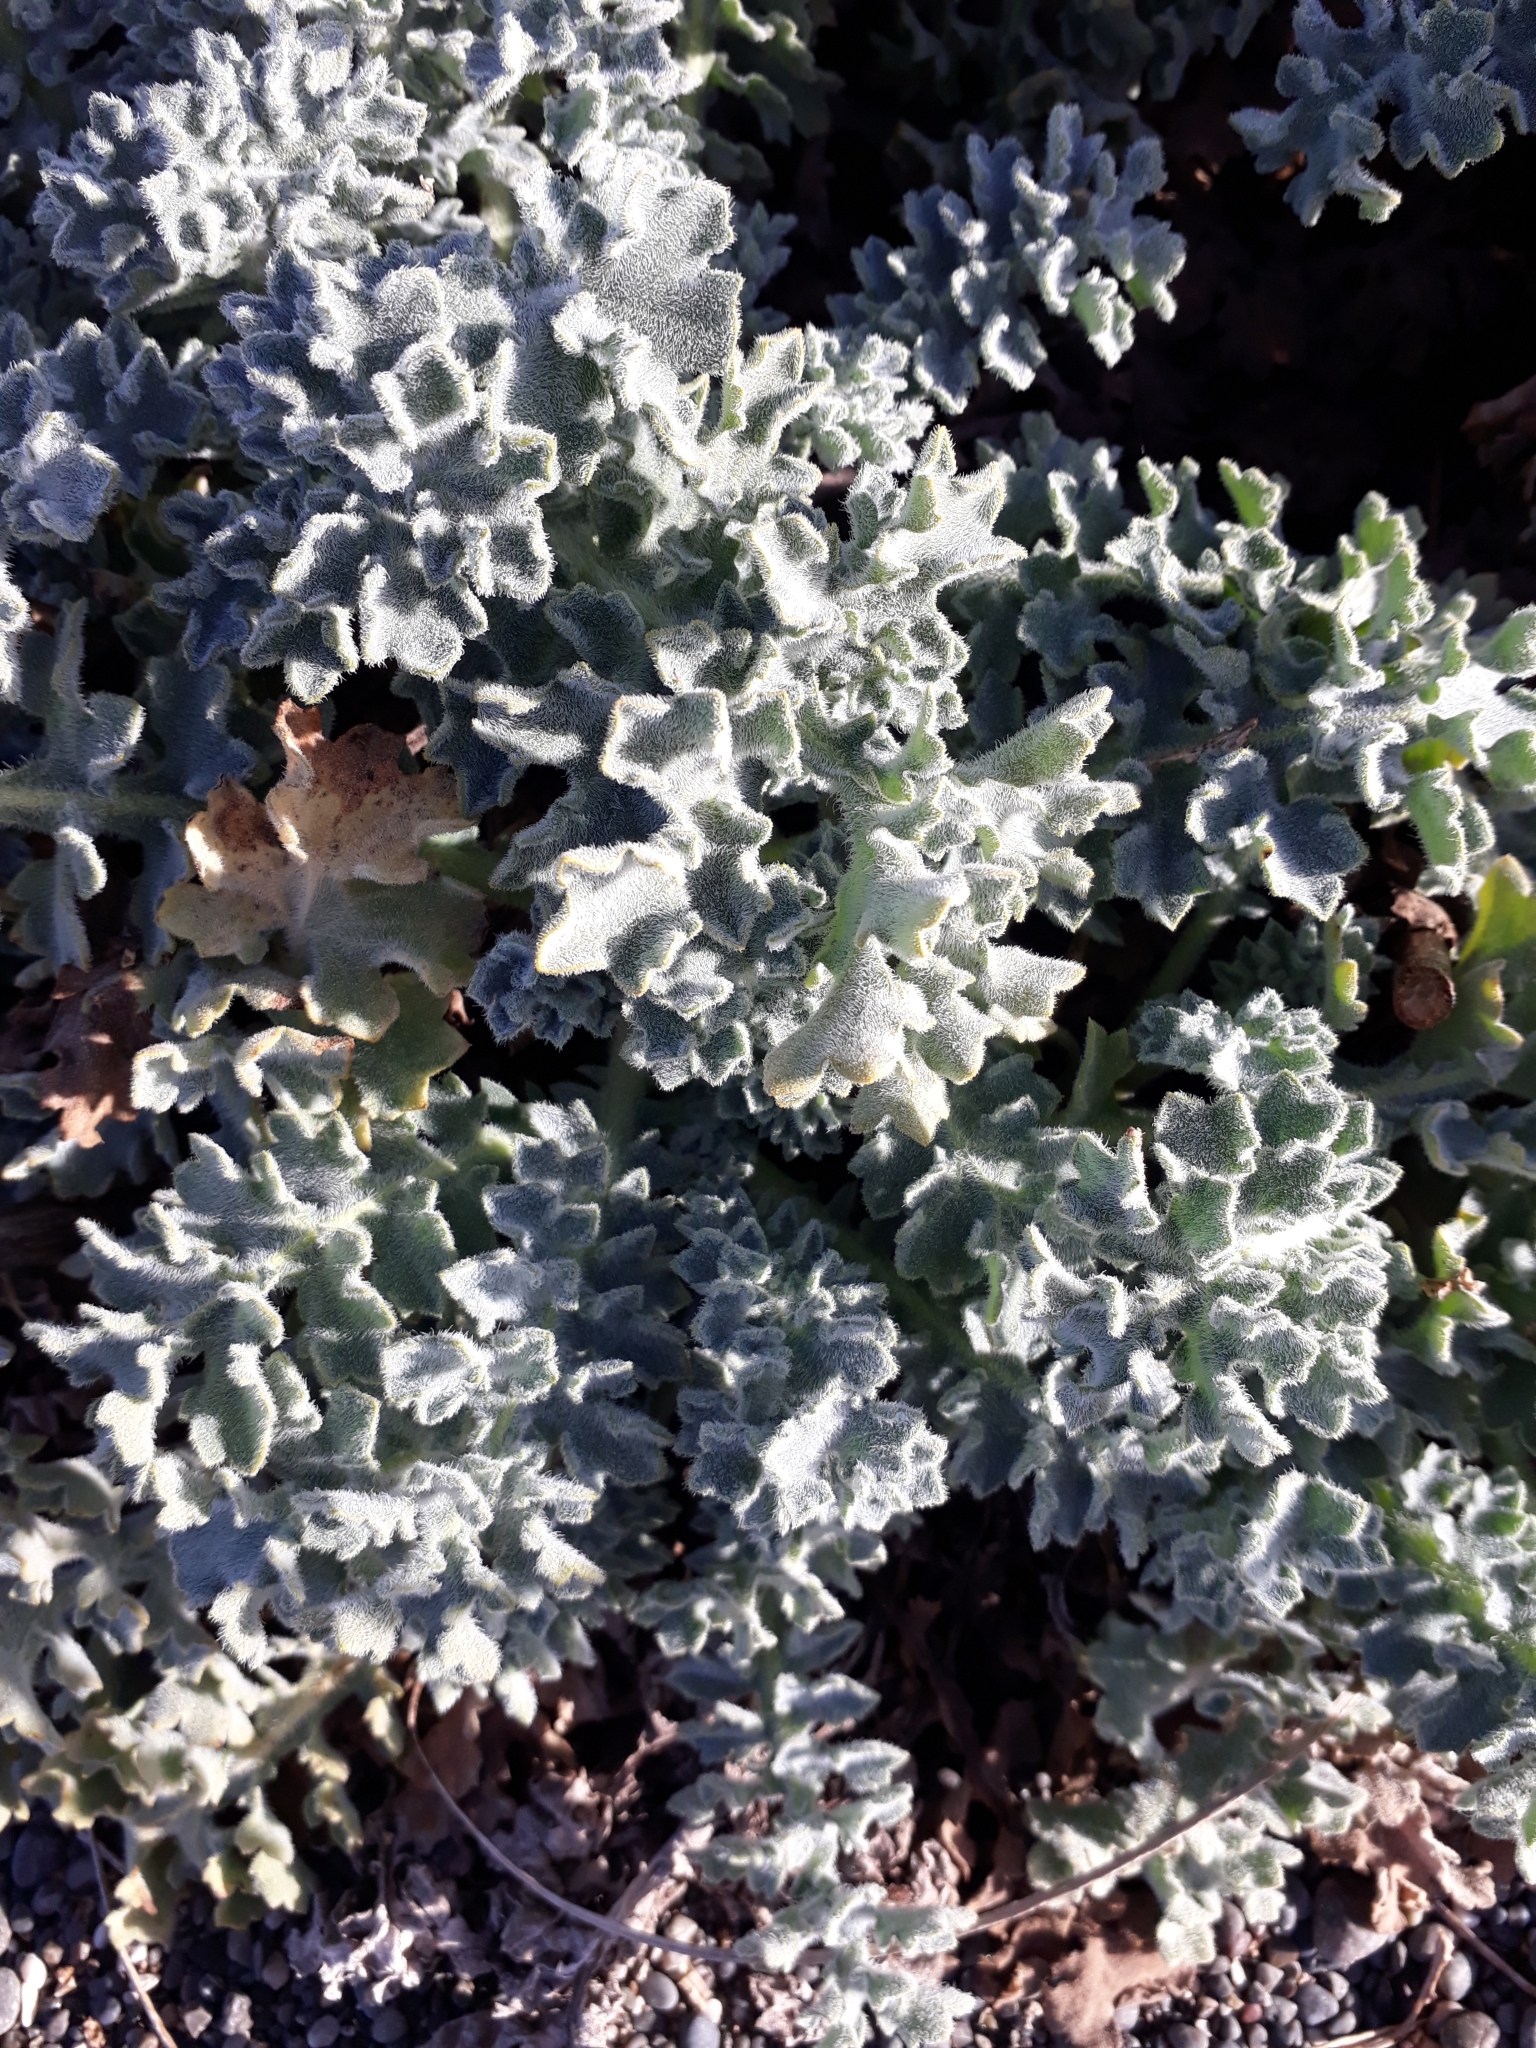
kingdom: Plantae
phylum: Tracheophyta
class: Magnoliopsida
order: Ranunculales
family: Papaveraceae
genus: Glaucium
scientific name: Glaucium flavum
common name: Yellow horned-poppy
